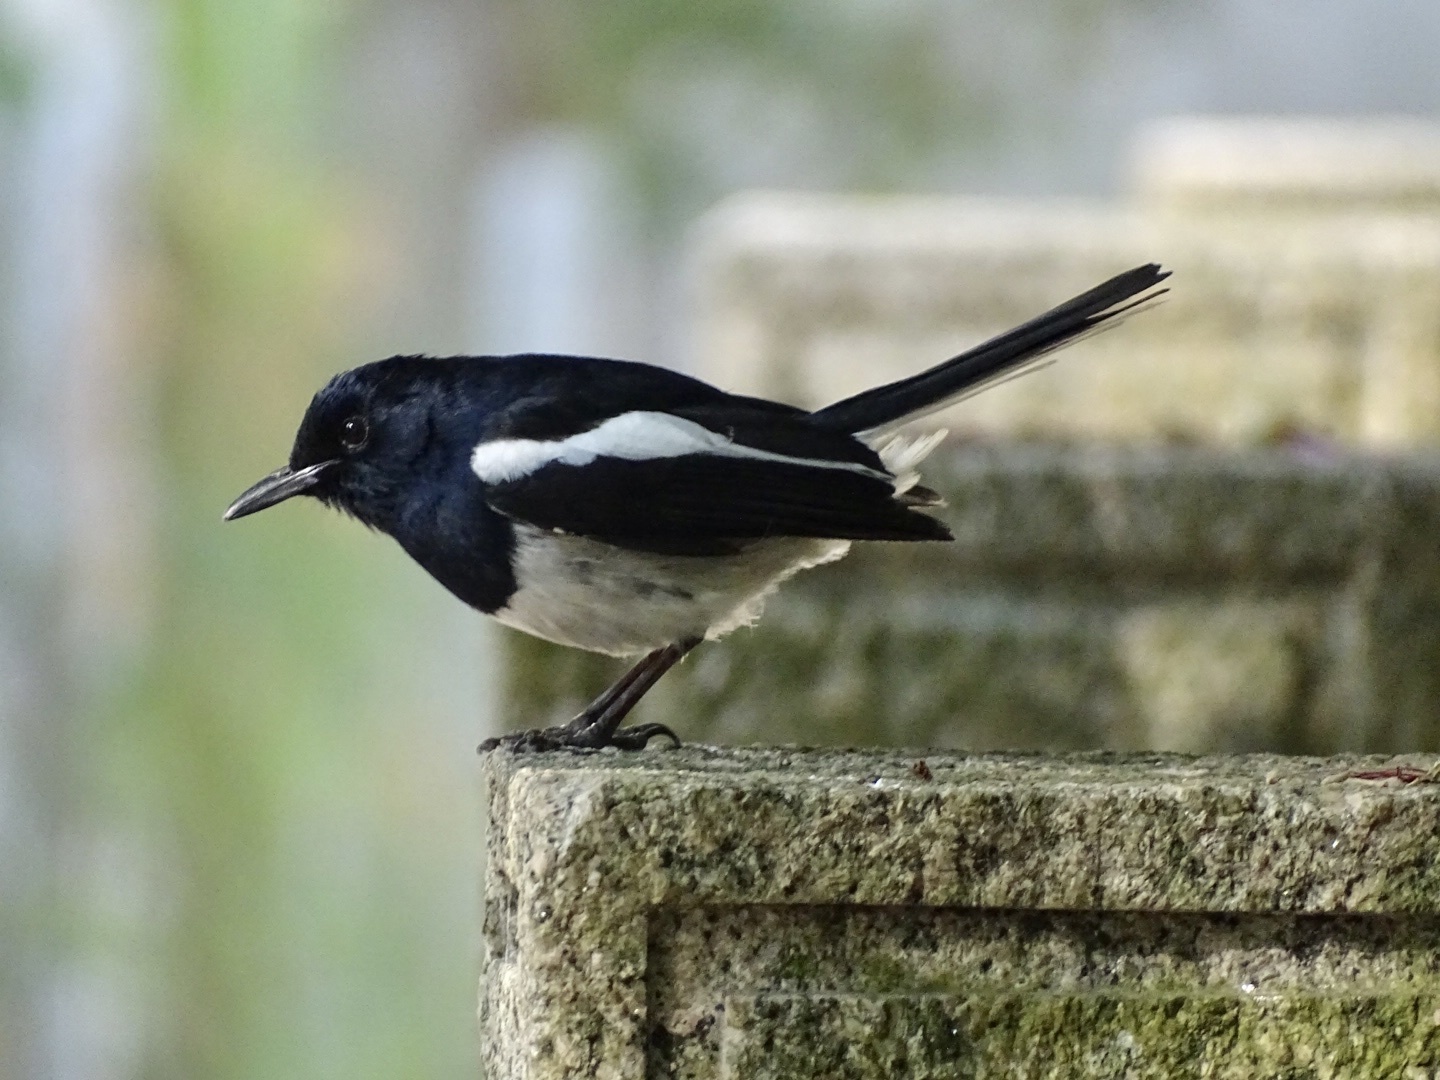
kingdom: Animalia
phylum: Chordata
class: Aves
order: Passeriformes
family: Muscicapidae
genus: Copsychus
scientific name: Copsychus saularis
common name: Oriental magpie-robin
